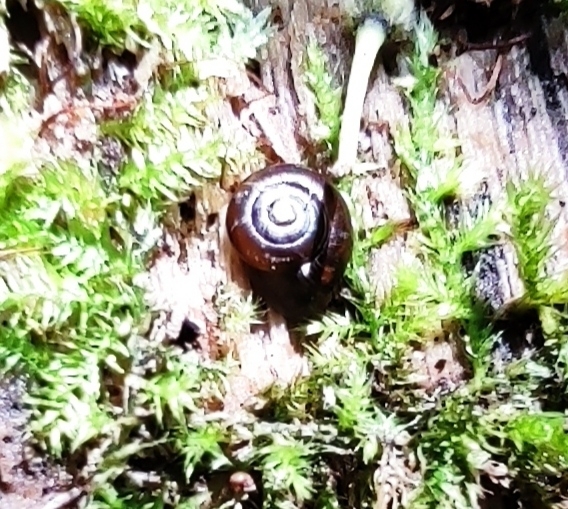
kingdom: Animalia
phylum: Mollusca
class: Gastropoda
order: Stylommatophora
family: Gastrodontidae
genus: Zonitoides
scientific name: Zonitoides nitidus
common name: Shiny glass snail
